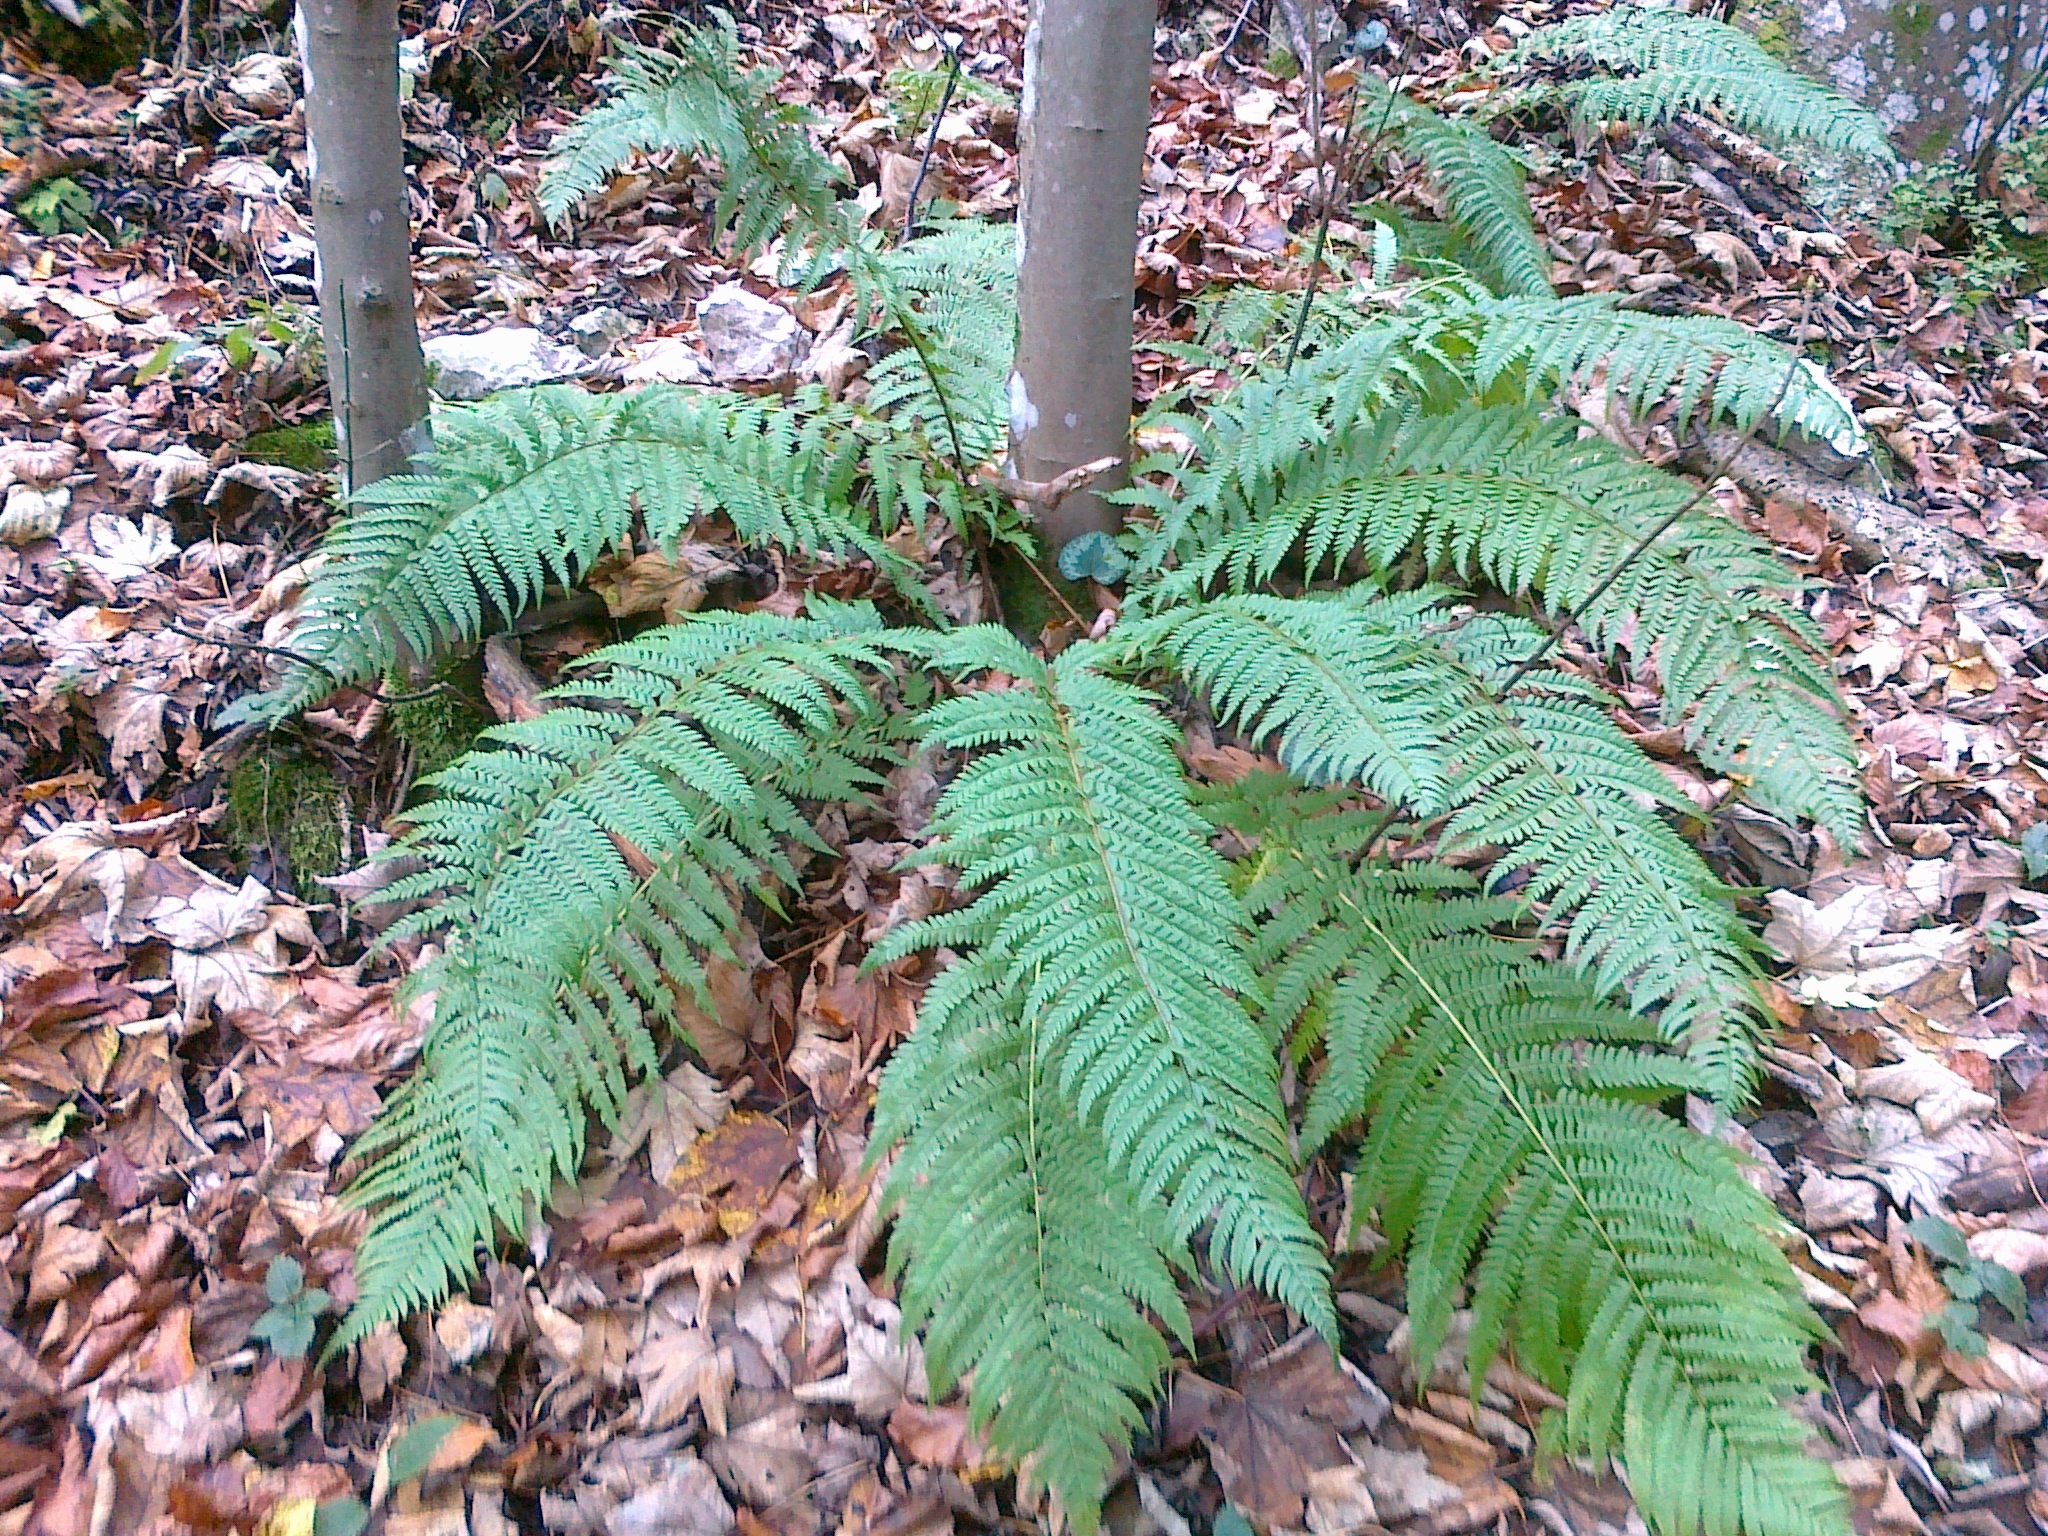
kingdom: Plantae
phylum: Tracheophyta
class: Polypodiopsida
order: Polypodiales
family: Dryopteridaceae
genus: Dryopteris
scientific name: Dryopteris filix-mas
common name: Male fern
